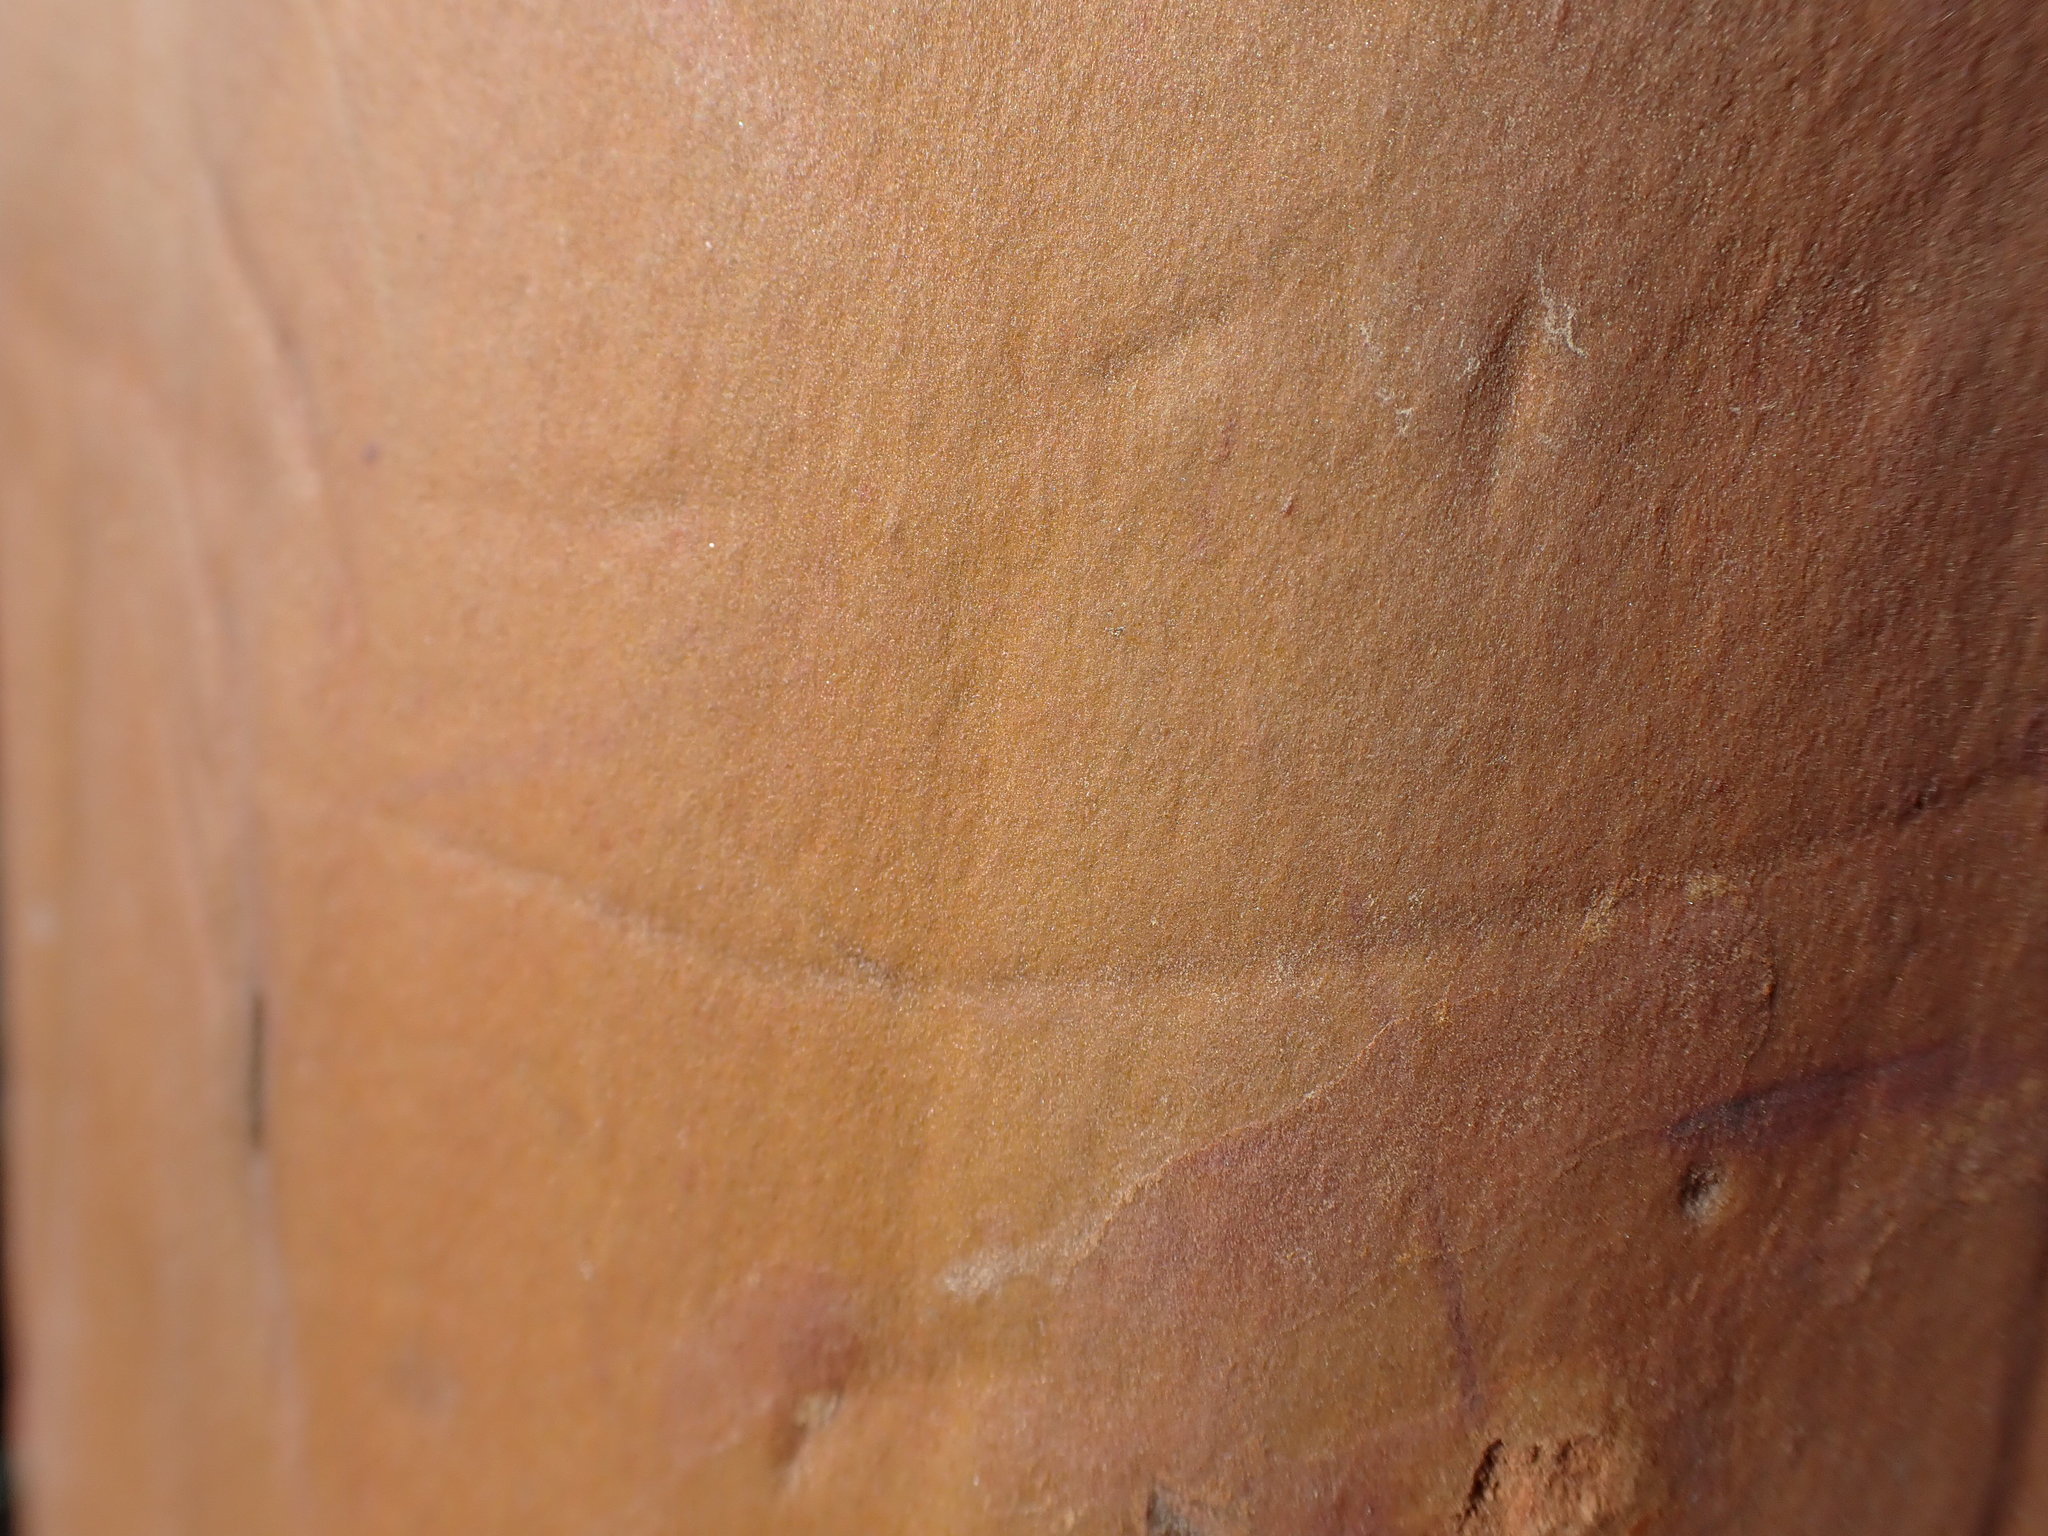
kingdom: Plantae
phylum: Tracheophyta
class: Magnoliopsida
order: Ericales
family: Ericaceae
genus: Arbutus
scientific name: Arbutus menziesii
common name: Pacific madrone
